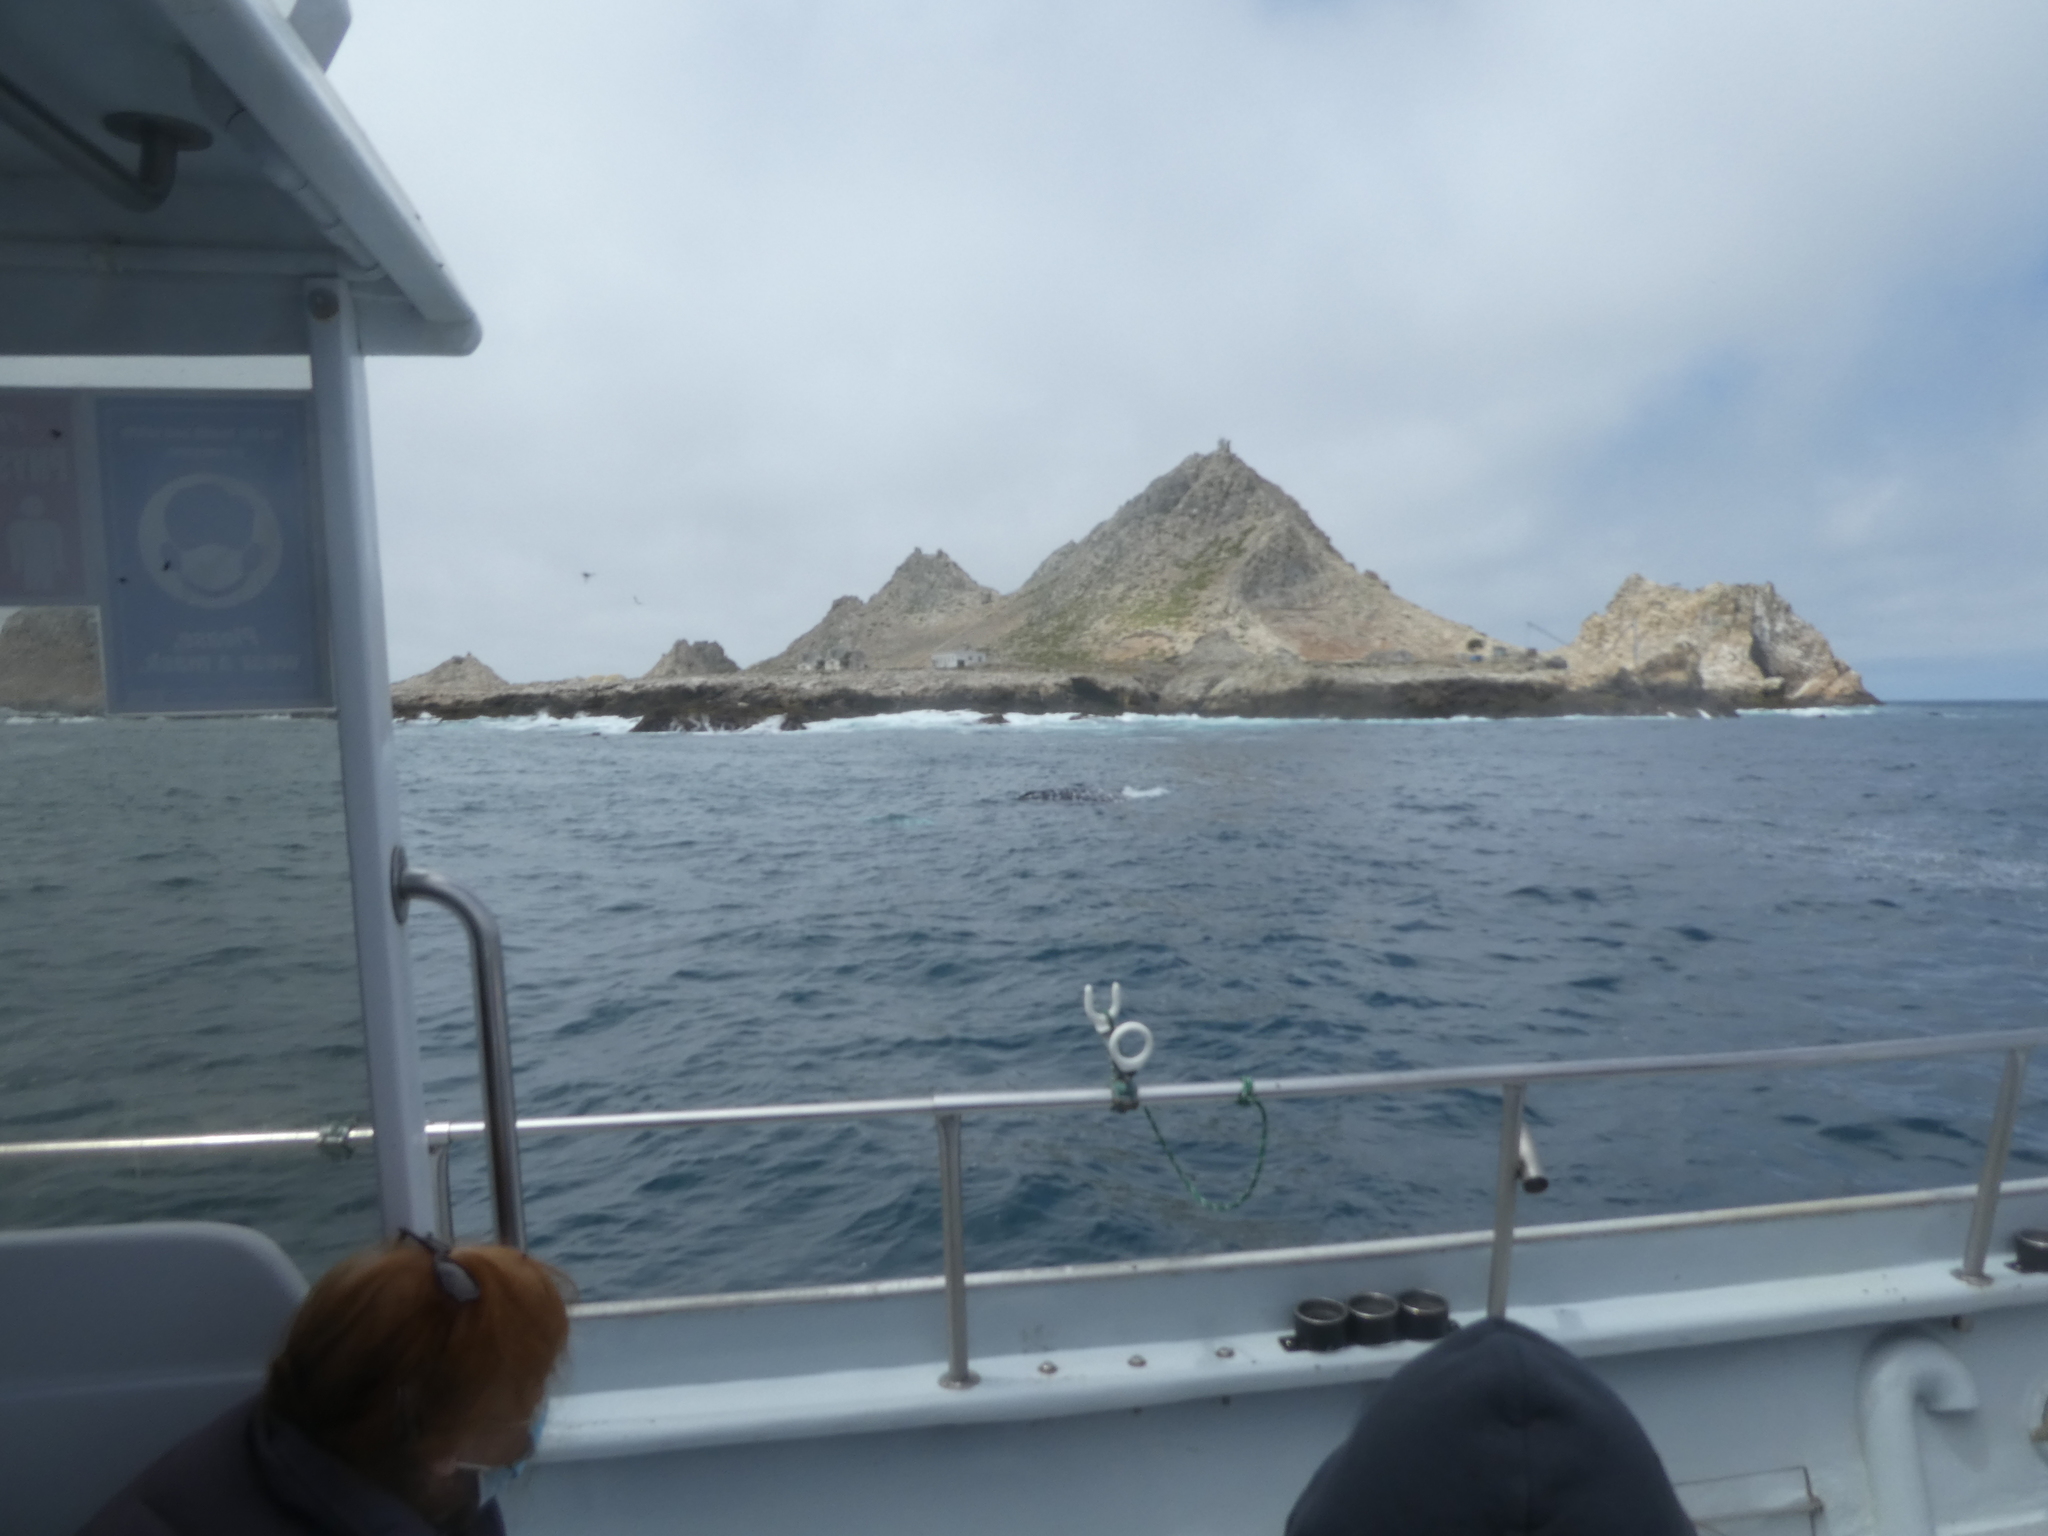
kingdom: Animalia
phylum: Chordata
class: Mammalia
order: Cetacea
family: Eschrichtiidae
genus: Eschrichtius
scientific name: Eschrichtius robustus
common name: Gray whale
